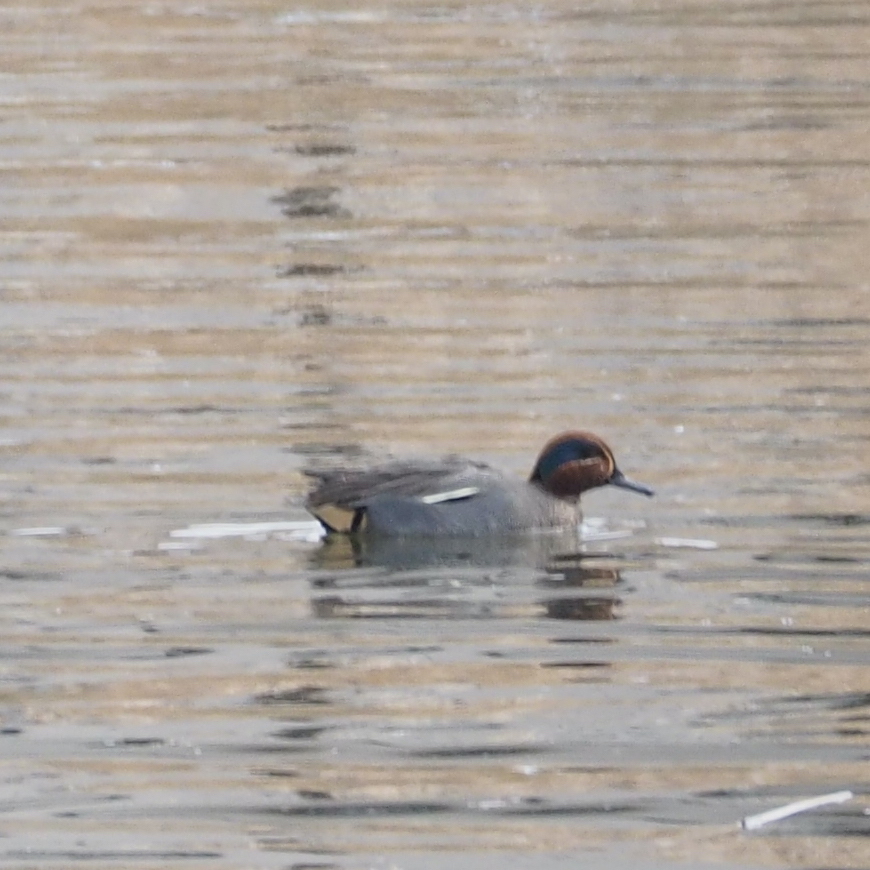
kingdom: Animalia
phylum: Chordata
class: Aves
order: Anseriformes
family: Anatidae
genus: Anas
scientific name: Anas crecca
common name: Eurasian teal
